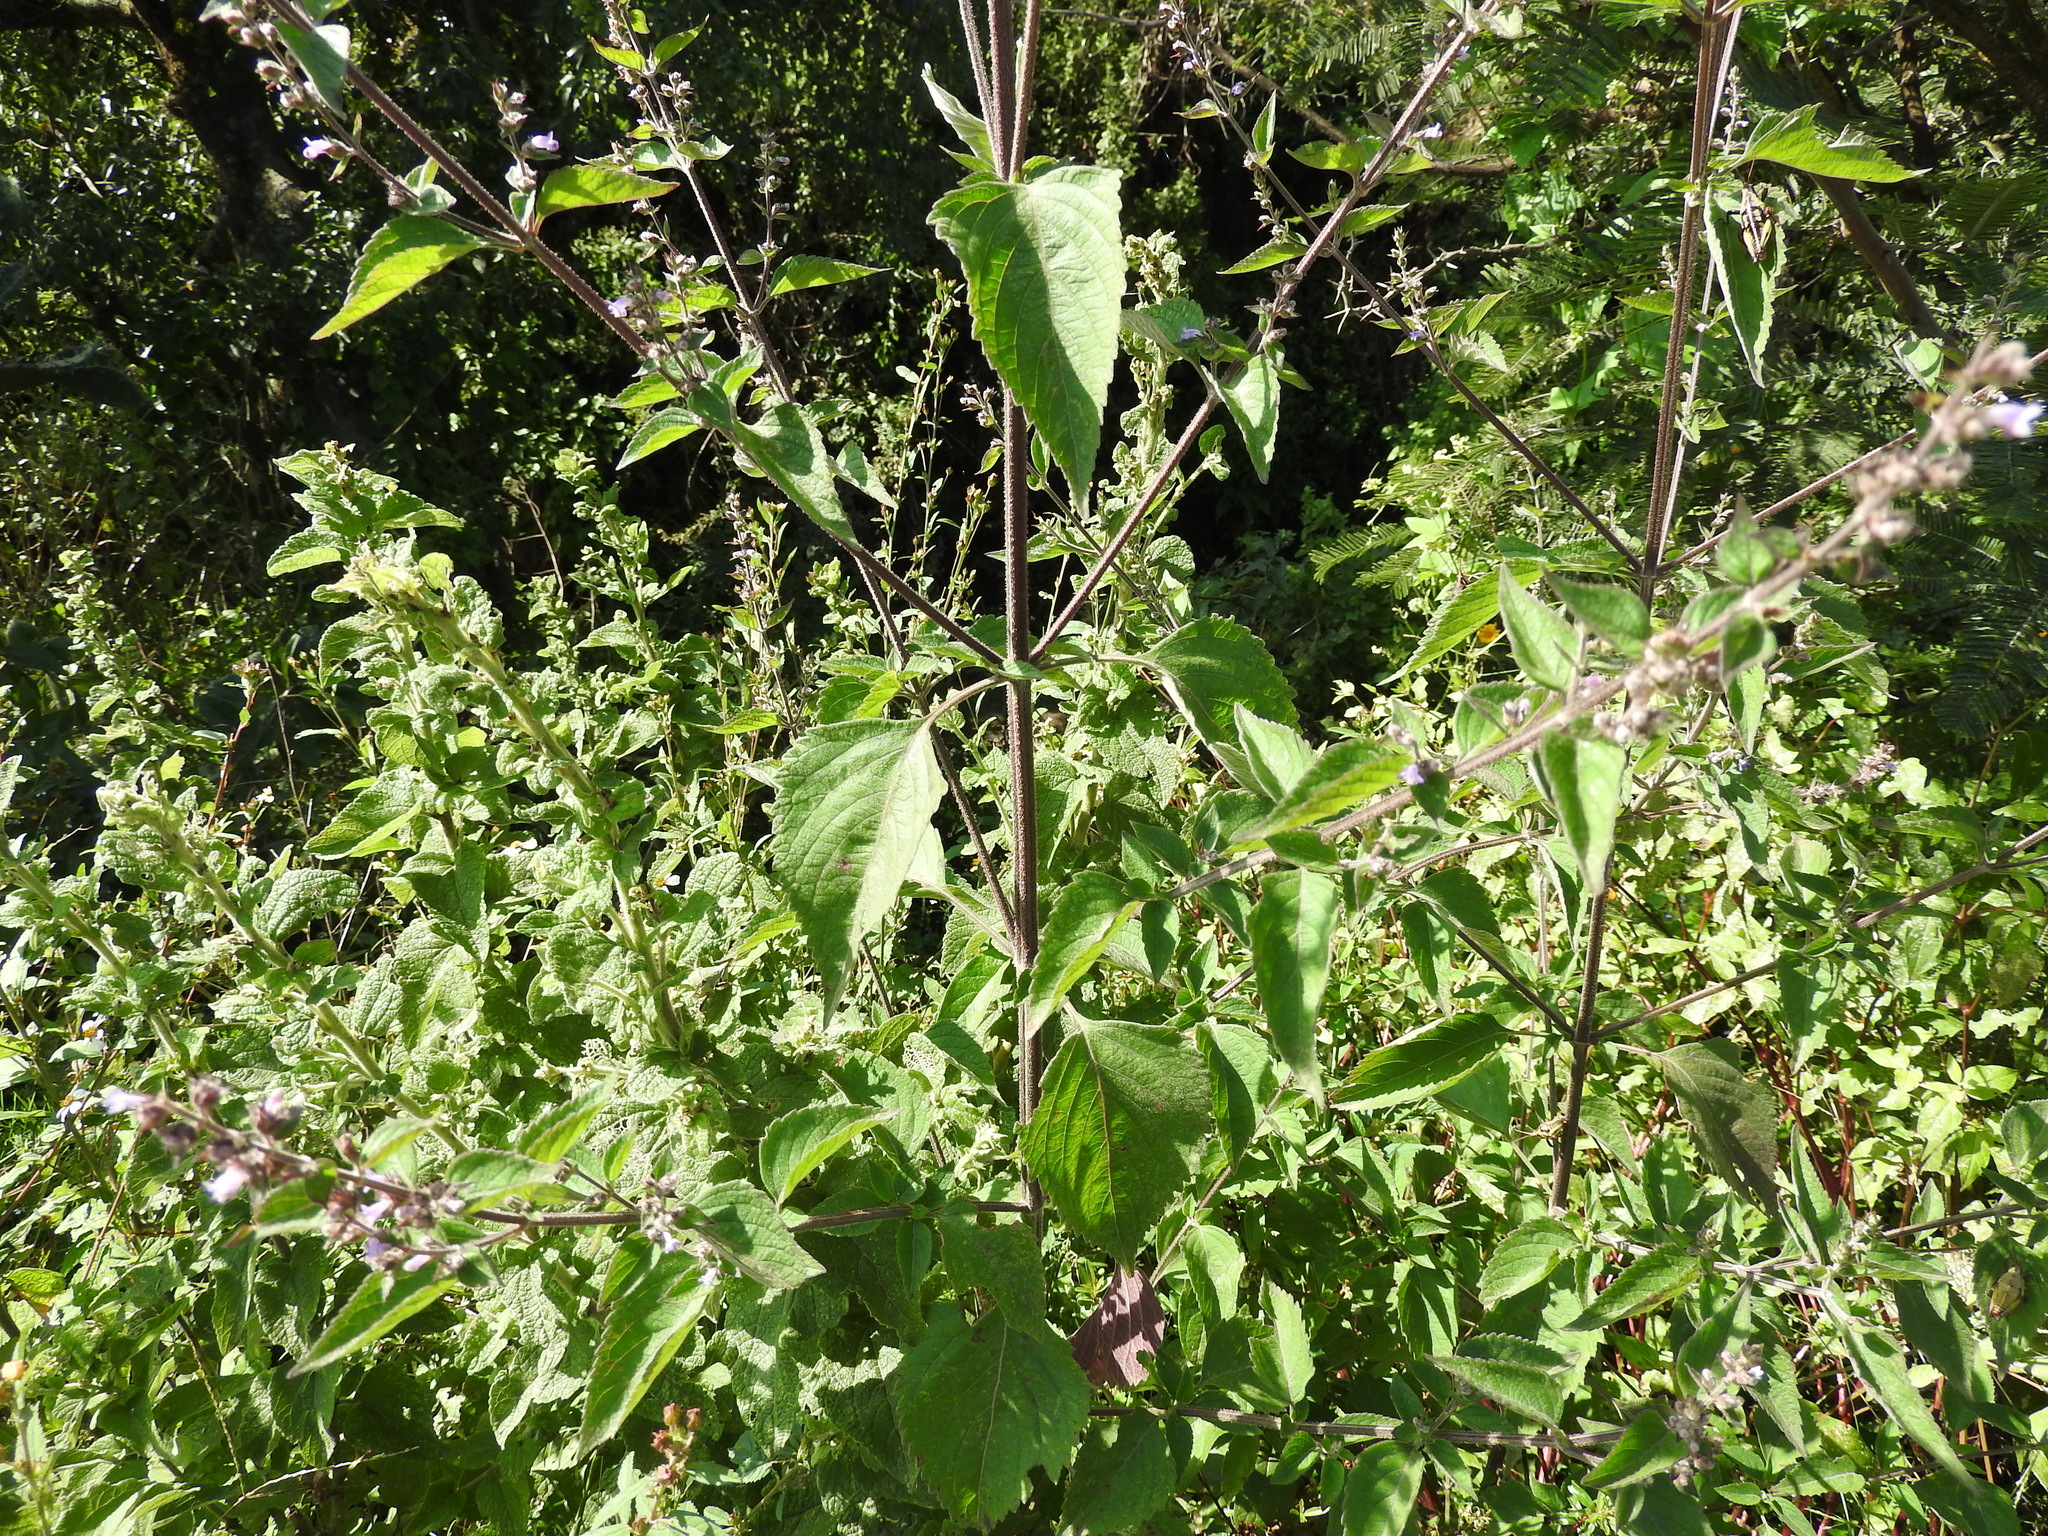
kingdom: Plantae
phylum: Tracheophyta
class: Magnoliopsida
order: Lamiales
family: Lamiaceae
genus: Cantinoa
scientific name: Cantinoa mutabilis
